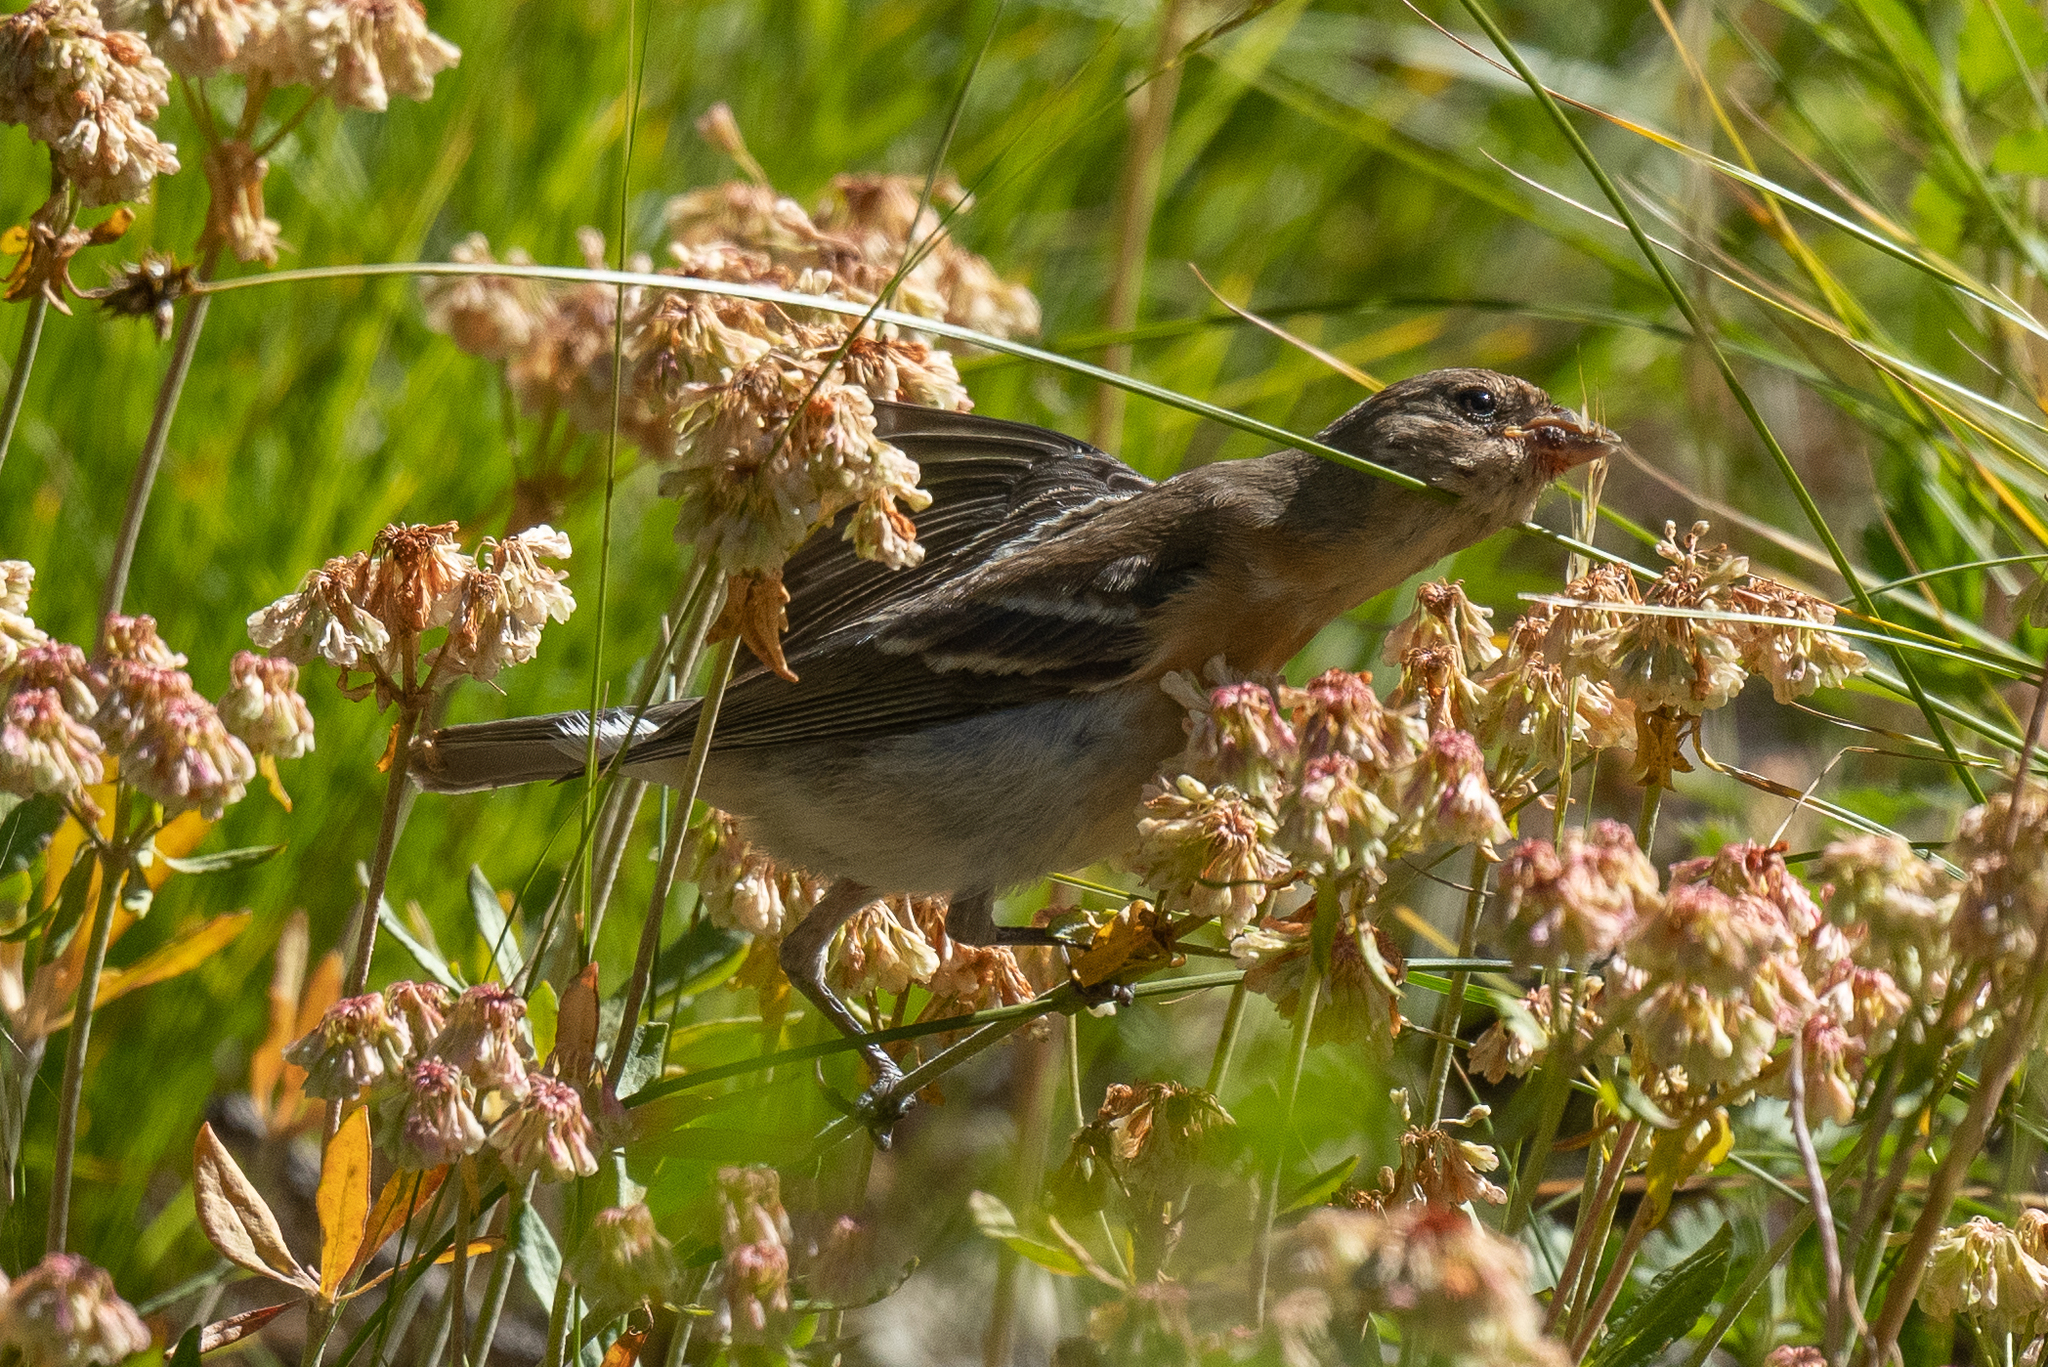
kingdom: Animalia
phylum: Chordata
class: Aves
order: Passeriformes
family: Cardinalidae
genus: Passerina
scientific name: Passerina amoena
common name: Lazuli bunting
